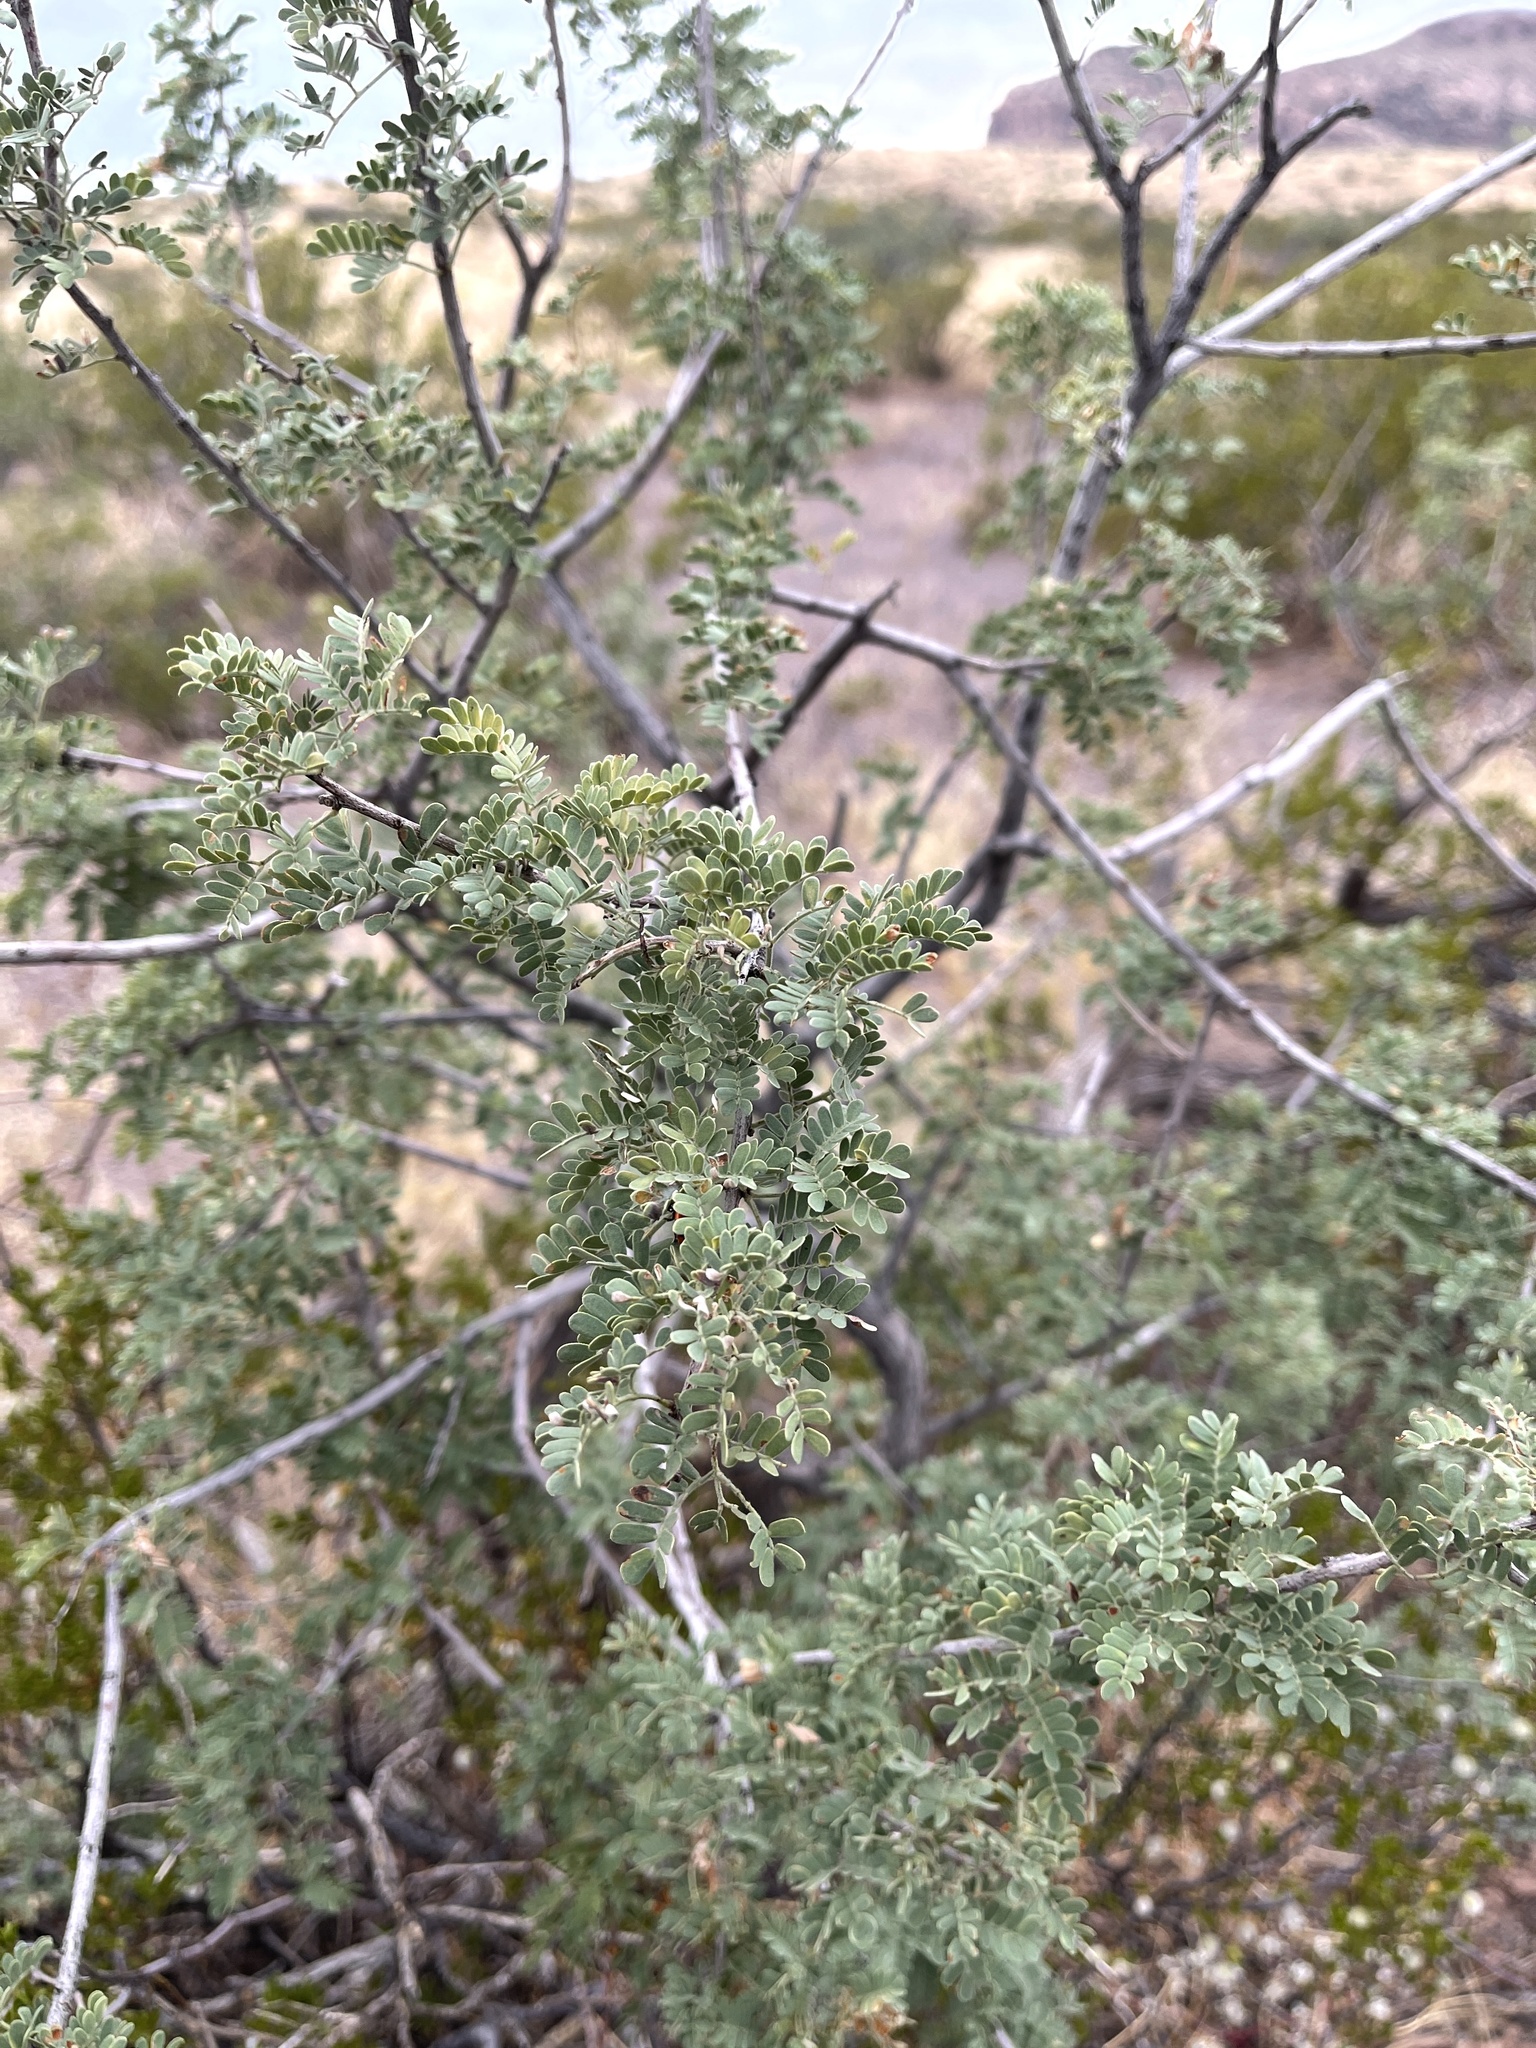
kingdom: Plantae
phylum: Tracheophyta
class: Magnoliopsida
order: Fabales
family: Fabaceae
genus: Senegalia
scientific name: Senegalia greggii
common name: Texas-mimosa
